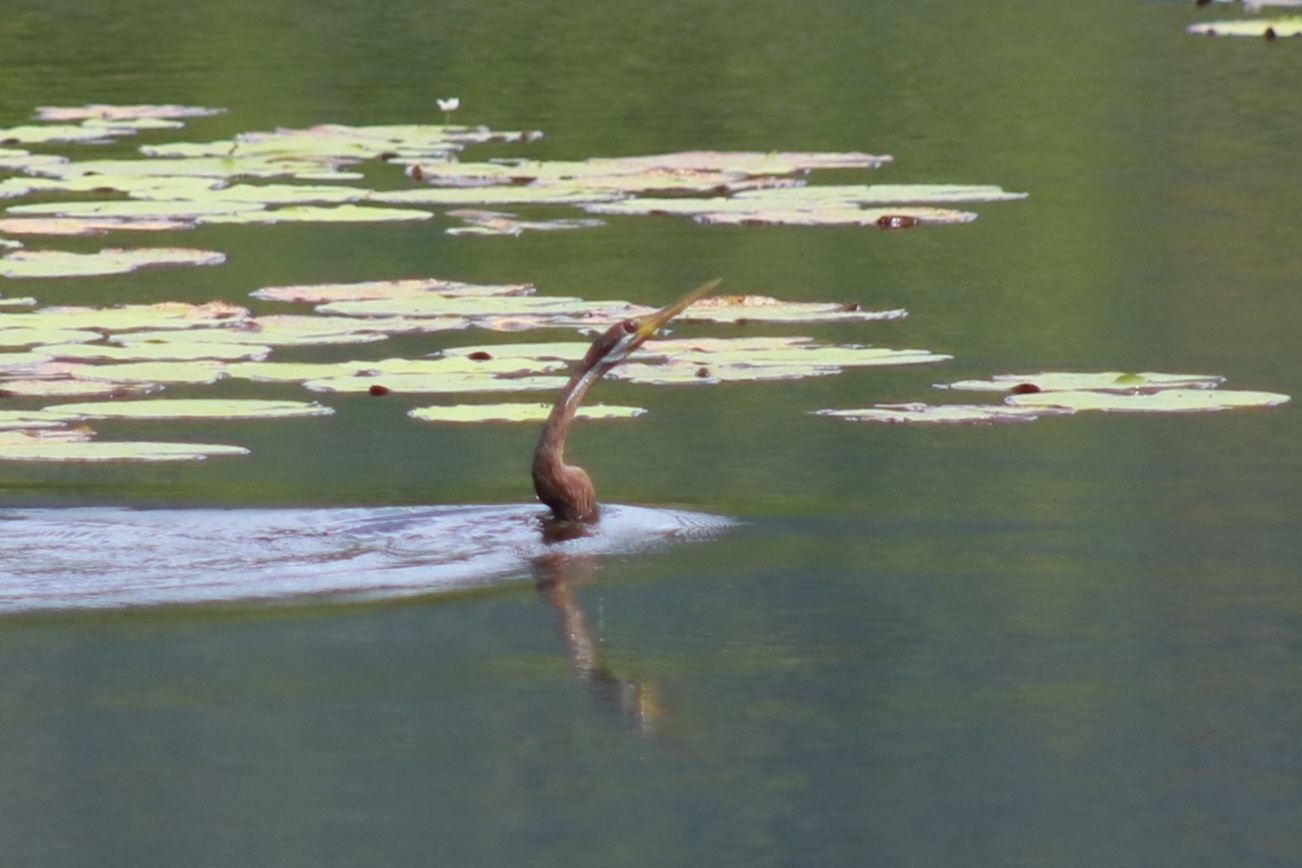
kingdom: Animalia
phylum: Chordata
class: Aves
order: Suliformes
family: Anhingidae
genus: Anhinga
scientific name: Anhinga novaehollandiae
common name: Australasian darter
